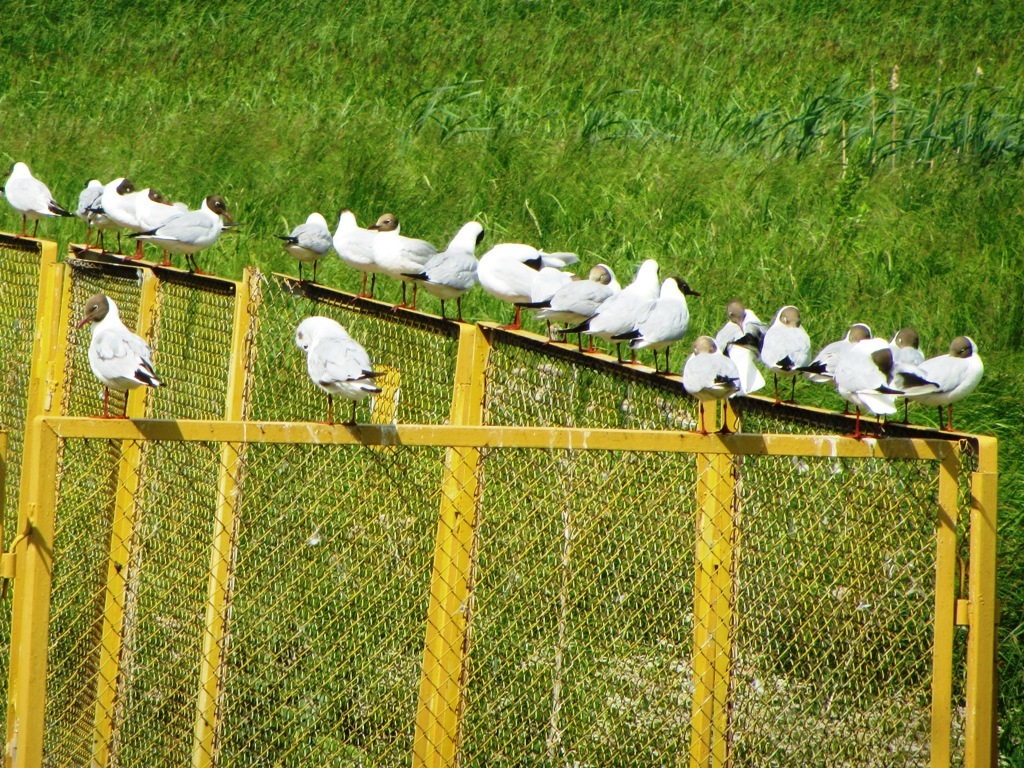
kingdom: Animalia
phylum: Chordata
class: Aves
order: Charadriiformes
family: Laridae
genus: Chroicocephalus
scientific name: Chroicocephalus ridibundus
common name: Black-headed gull
